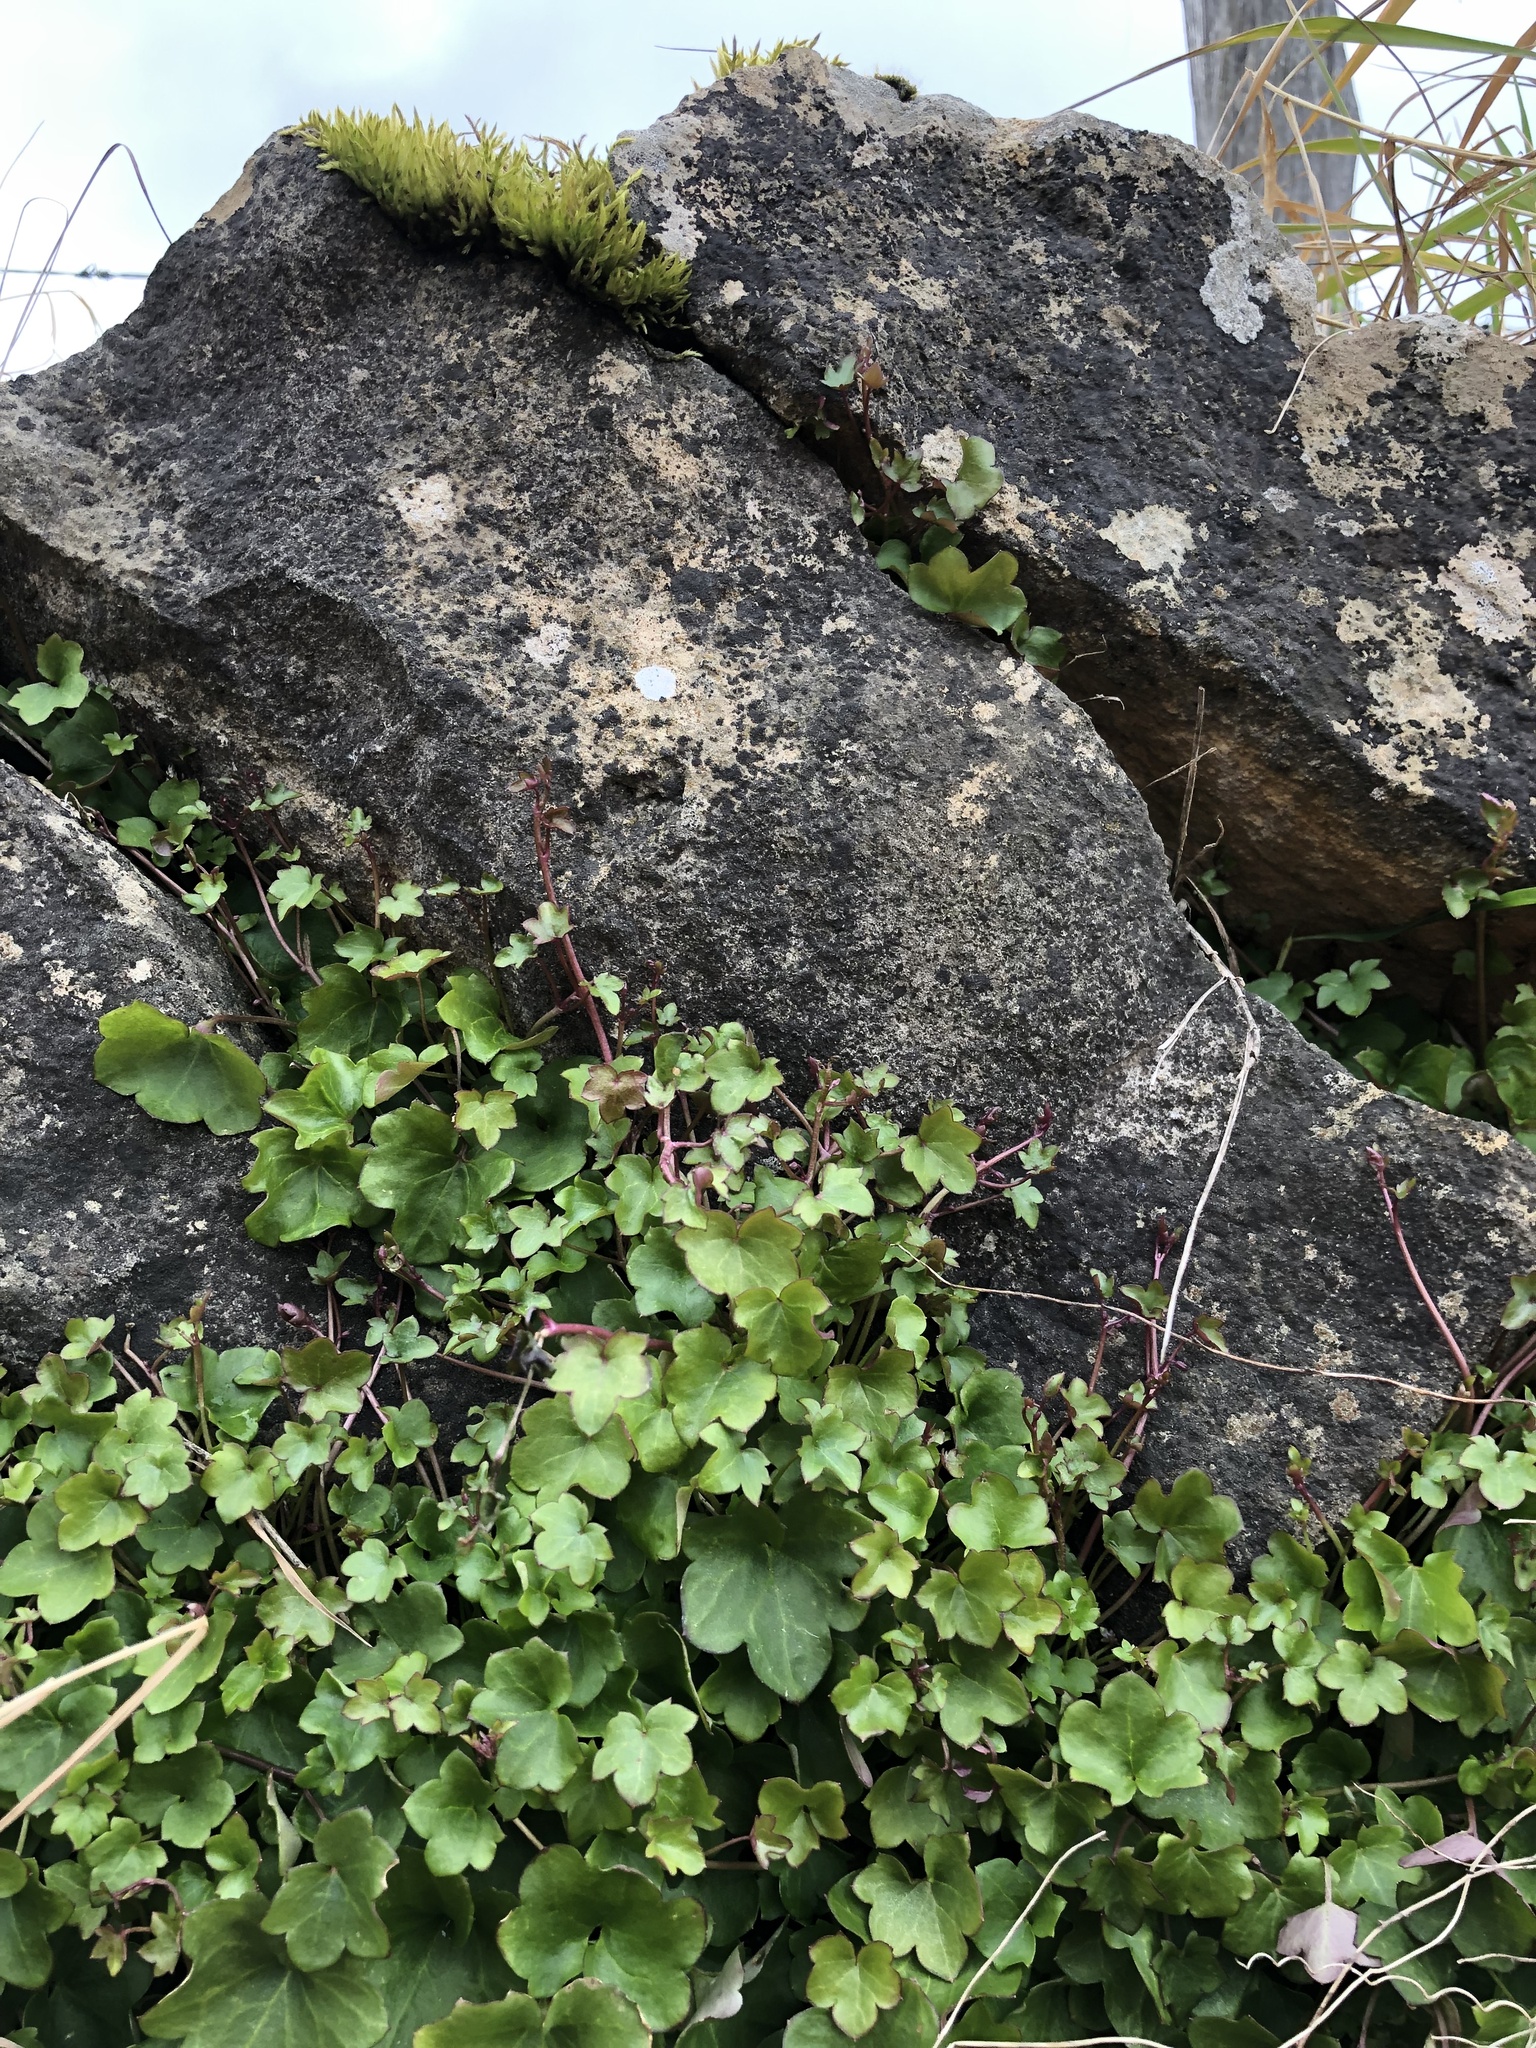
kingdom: Plantae
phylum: Tracheophyta
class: Magnoliopsida
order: Lamiales
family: Plantaginaceae
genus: Cymbalaria
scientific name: Cymbalaria muralis
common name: Ivy-leaved toadflax
